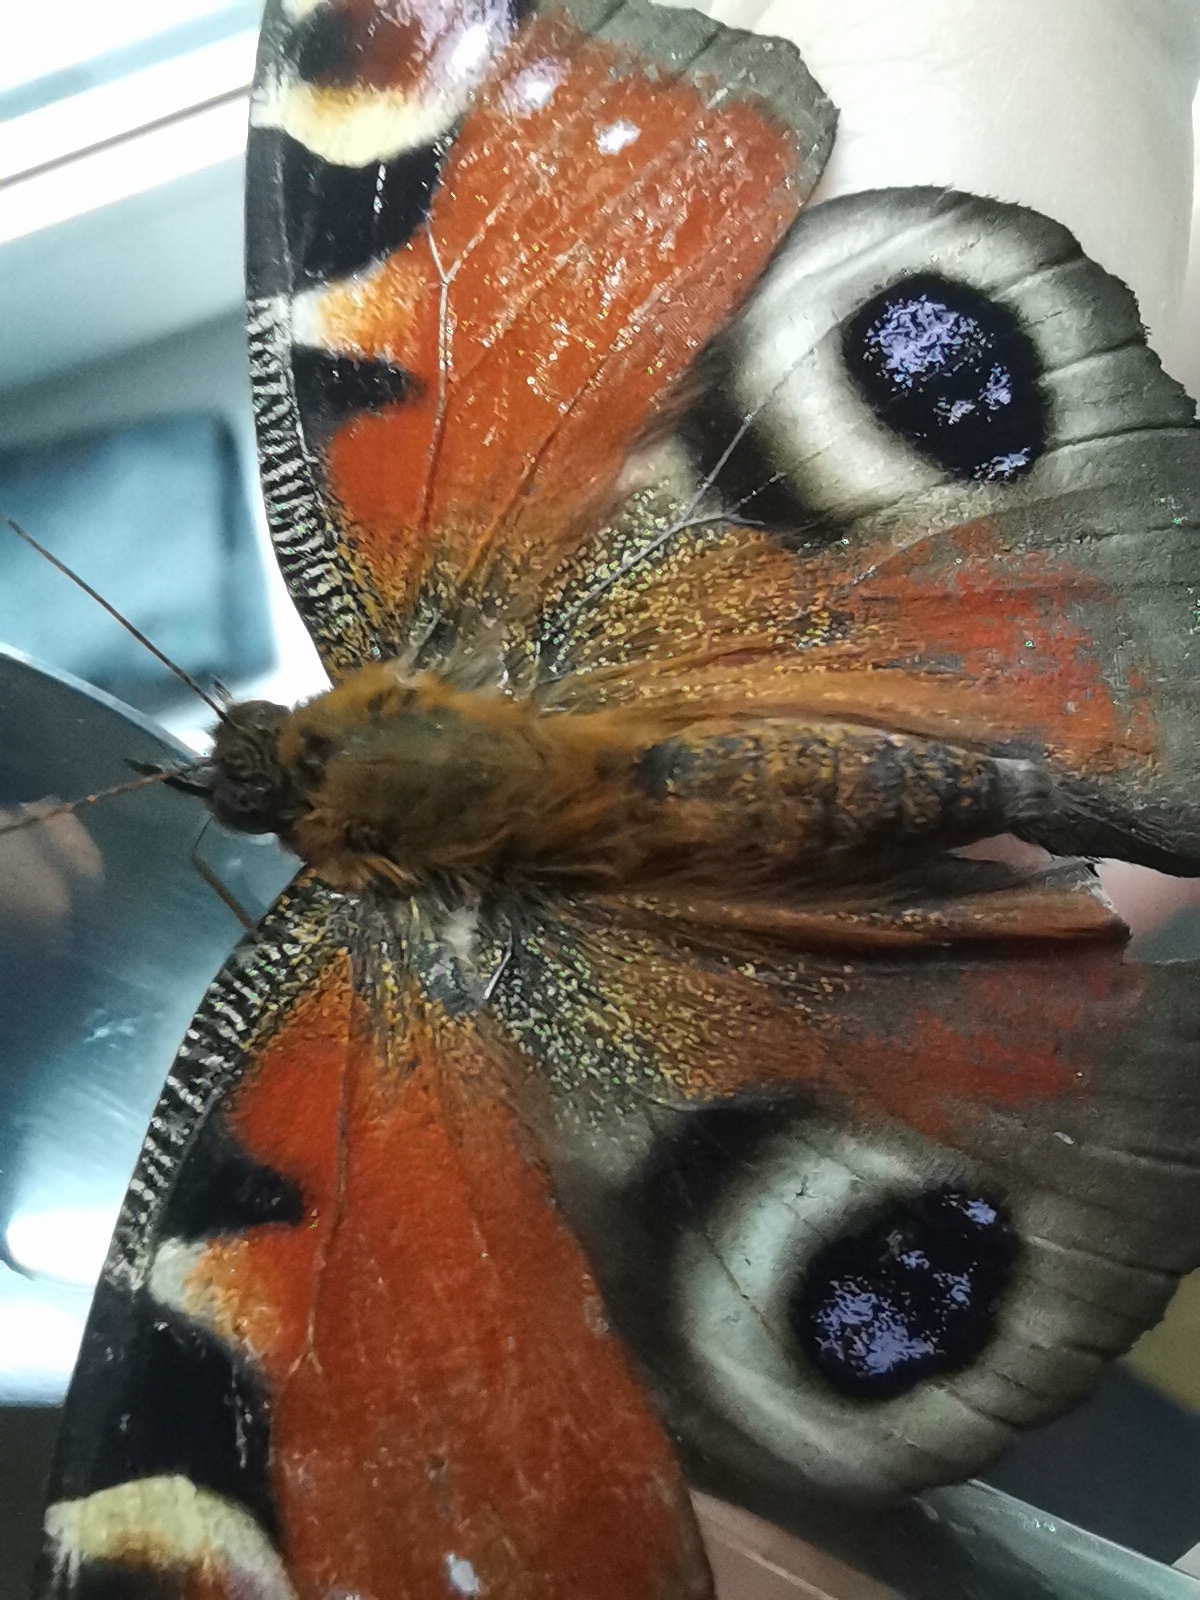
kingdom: Animalia
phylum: Arthropoda
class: Insecta
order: Lepidoptera
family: Nymphalidae
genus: Aglais
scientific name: Aglais io
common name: Peacock
